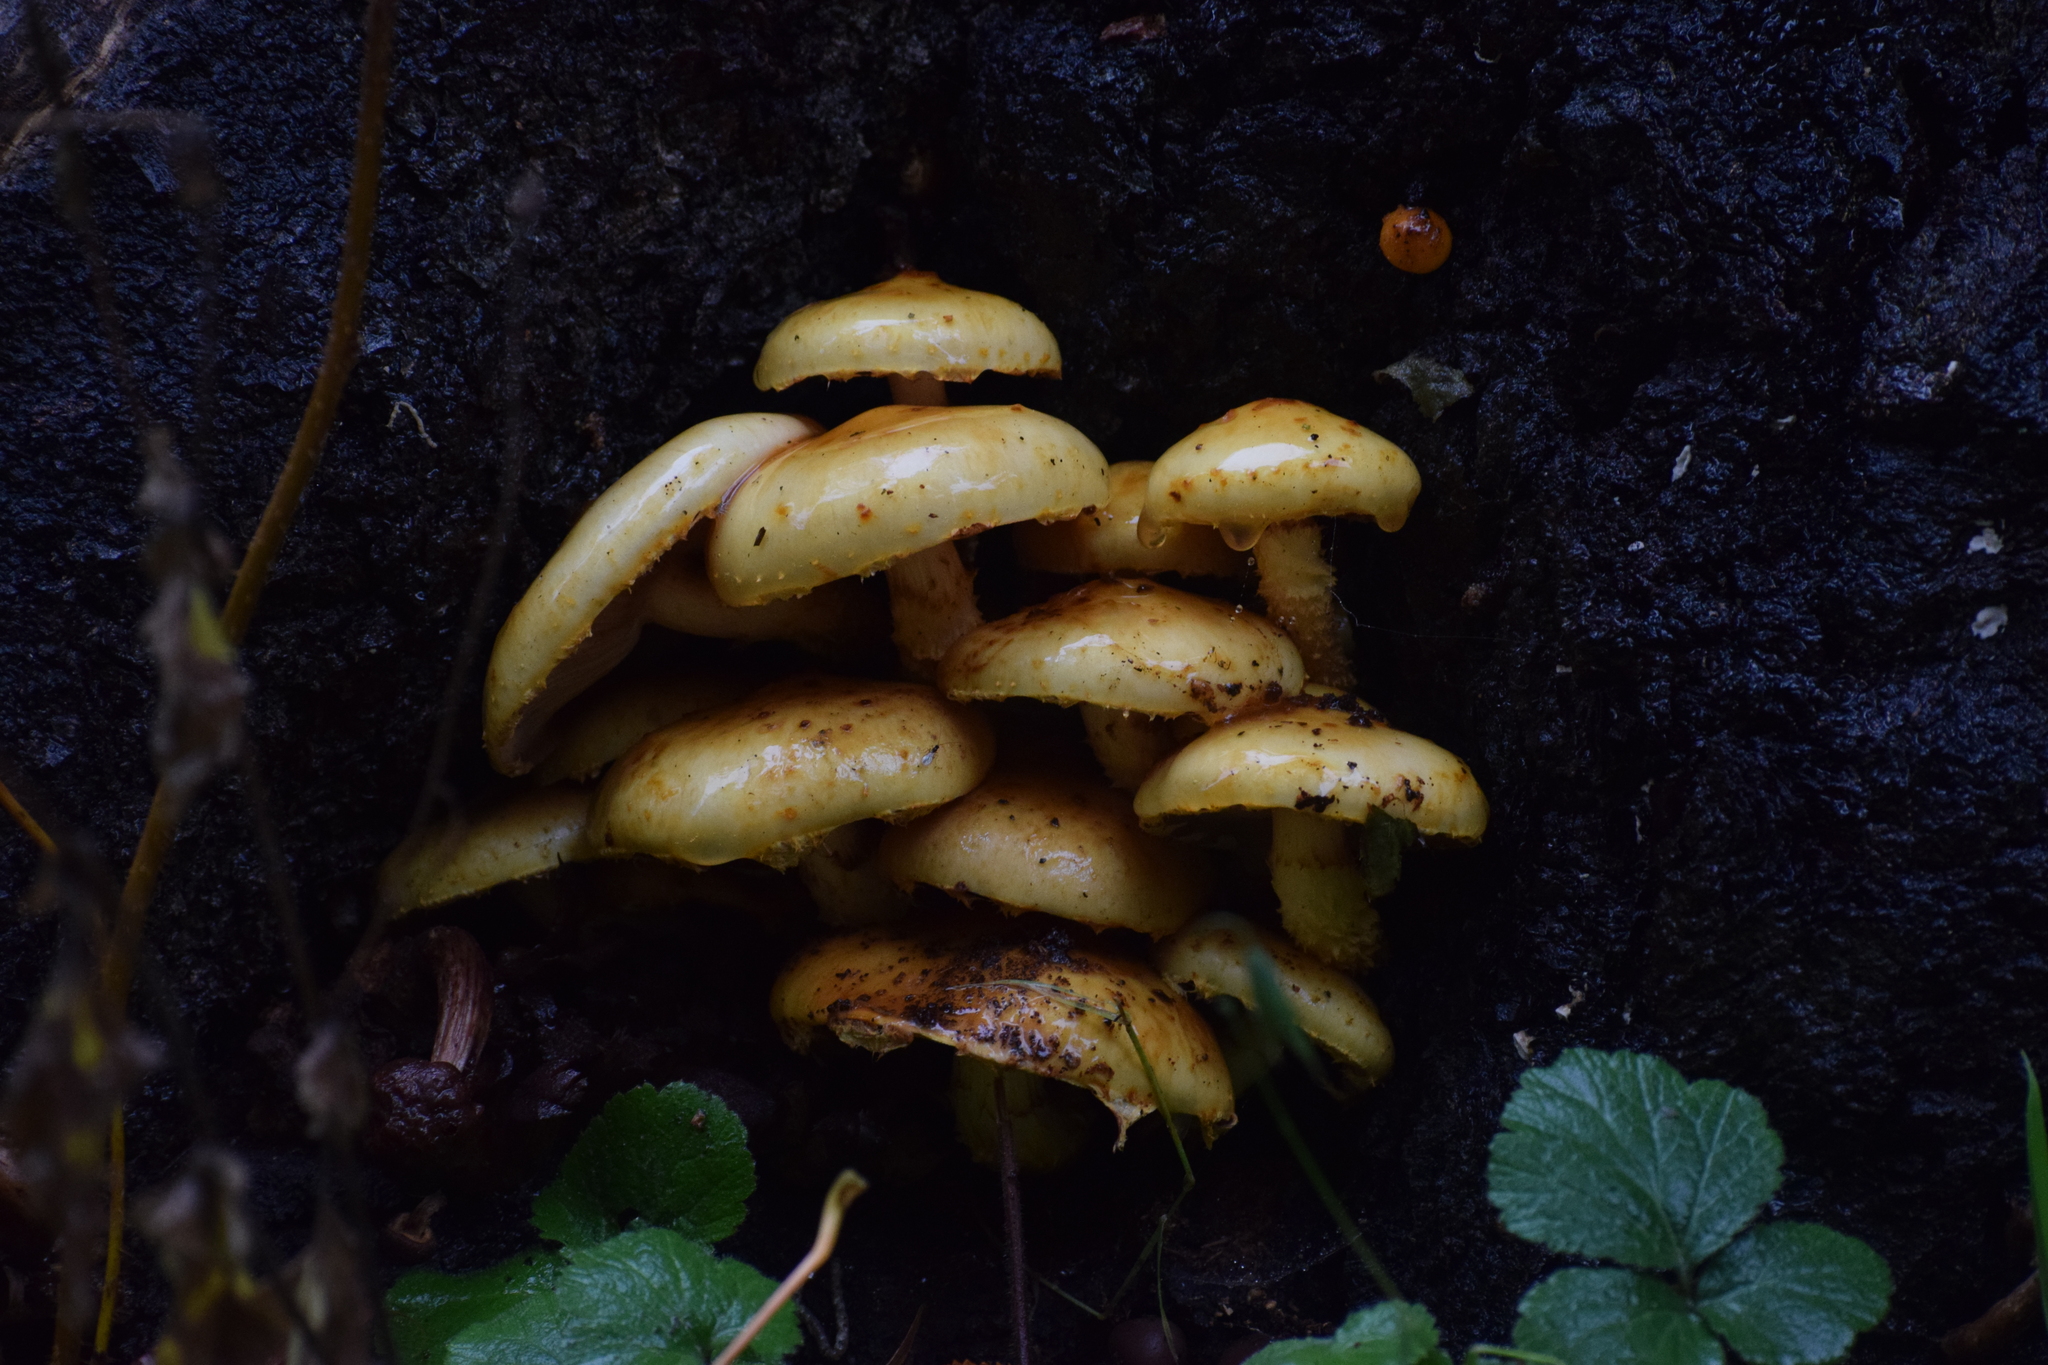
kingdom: Fungi
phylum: Basidiomycota
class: Agaricomycetes
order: Agaricales
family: Strophariaceae
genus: Pholiota
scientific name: Pholiota aurivella
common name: Golden scalycap
